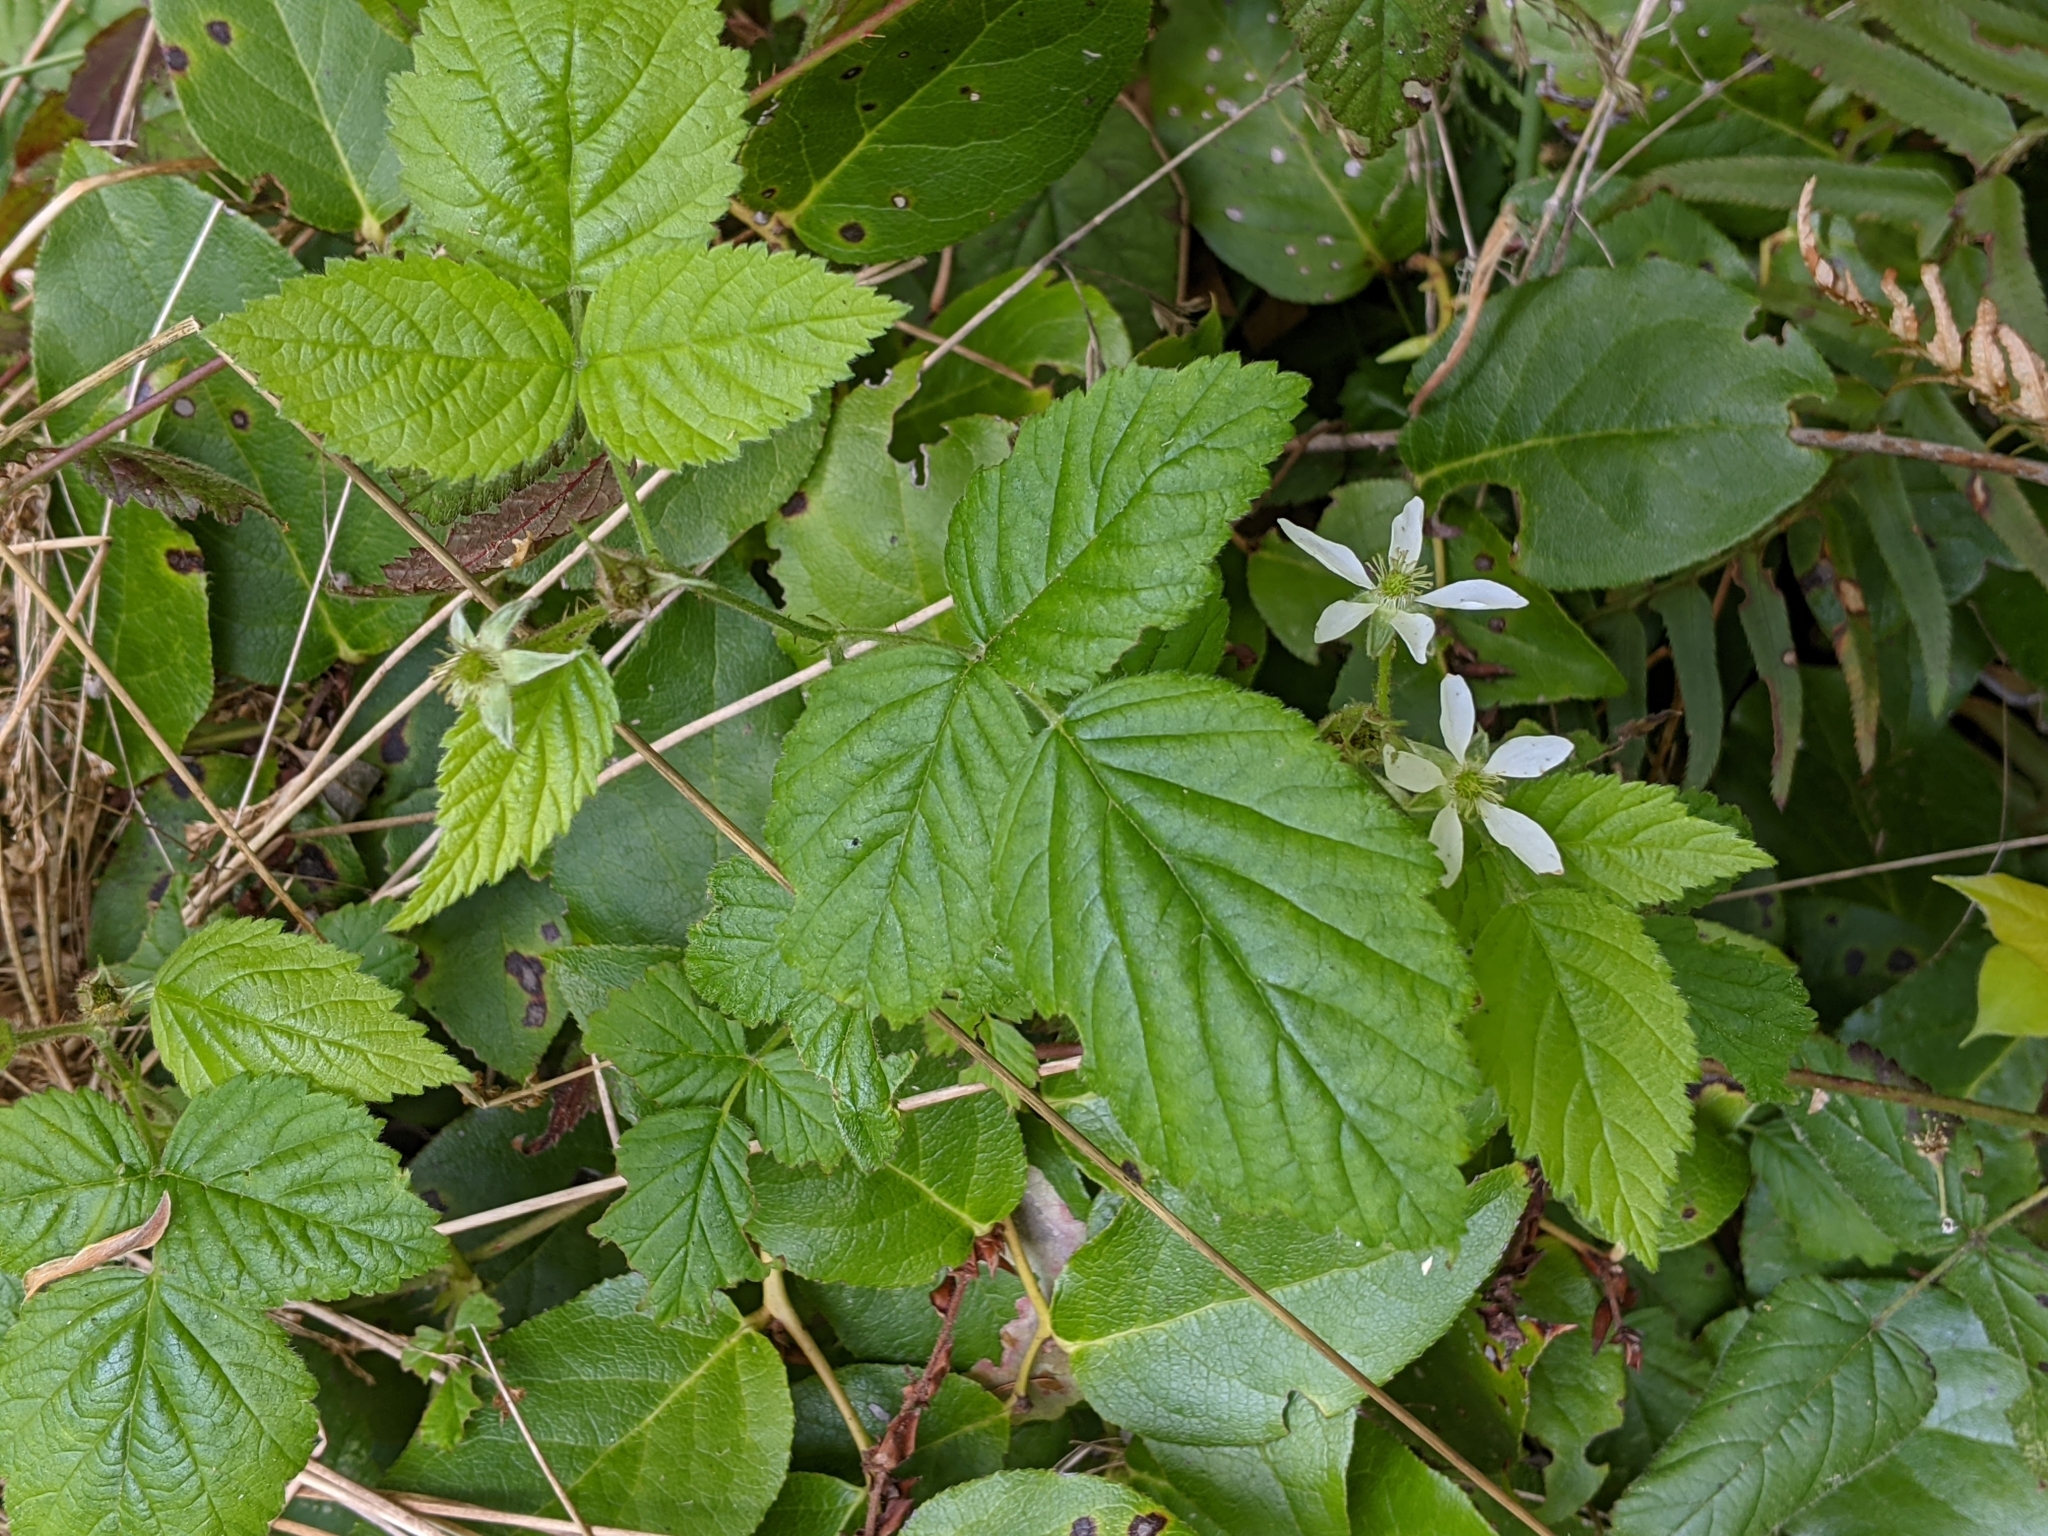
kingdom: Plantae
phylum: Tracheophyta
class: Magnoliopsida
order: Rosales
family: Rosaceae
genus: Rubus
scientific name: Rubus ursinus
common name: Pacific blackberry
